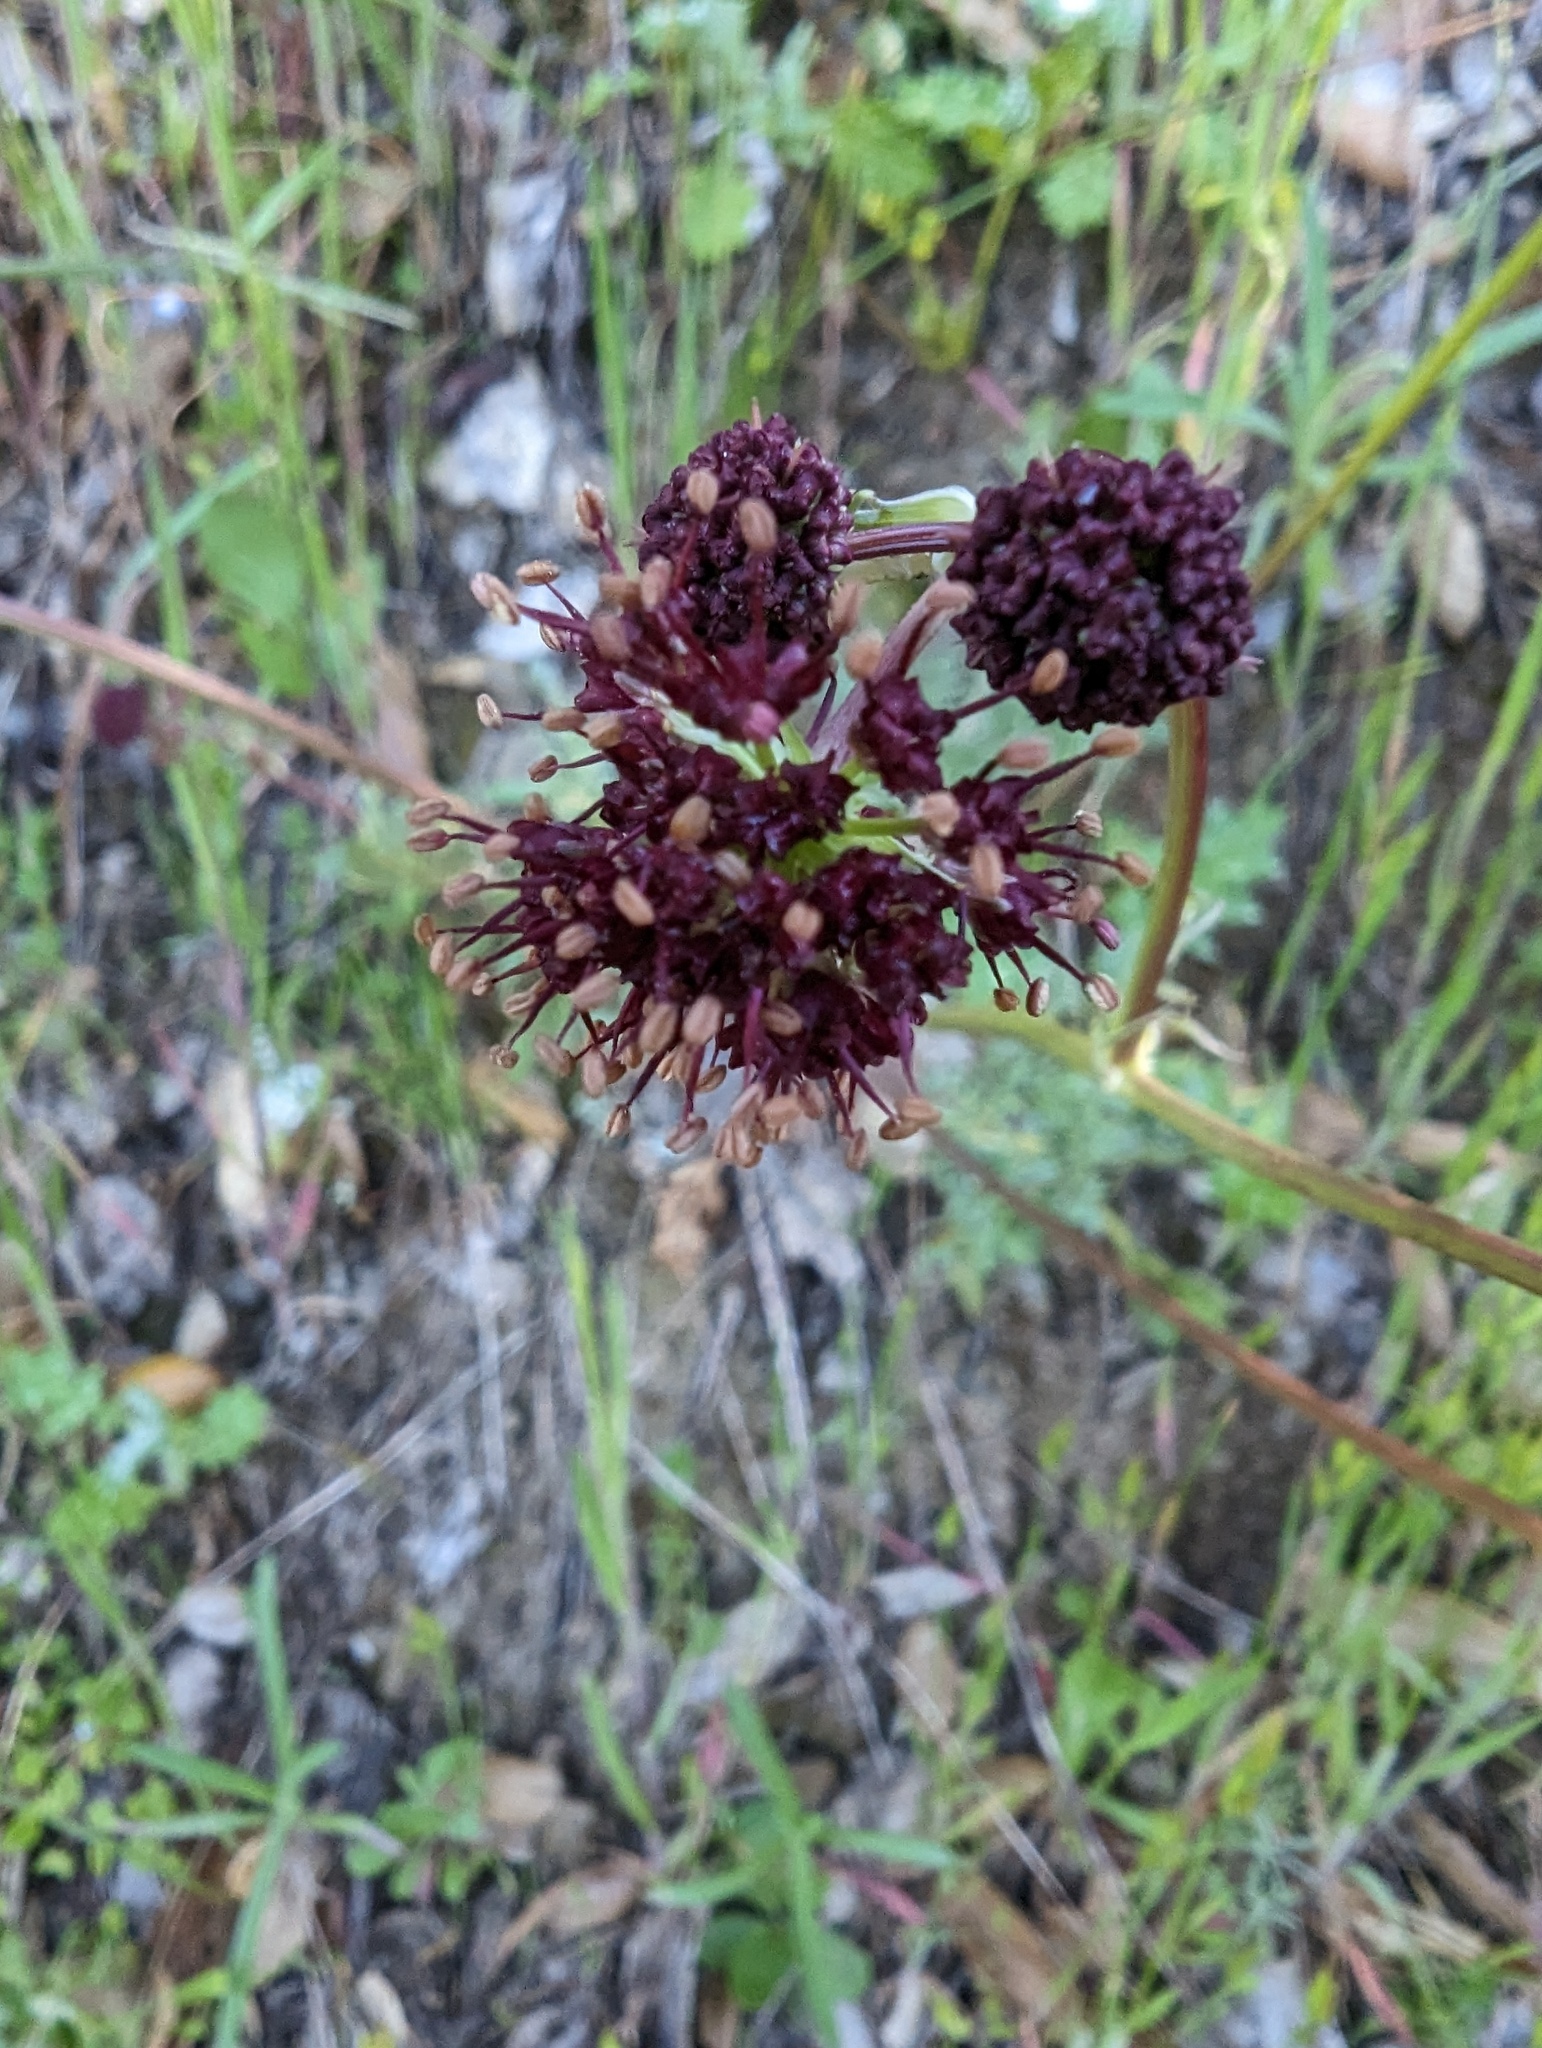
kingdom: Plantae
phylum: Tracheophyta
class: Magnoliopsida
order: Apiales
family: Apiaceae
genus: Sanicula
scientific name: Sanicula bipinnatifida
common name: Shoe-buttons
